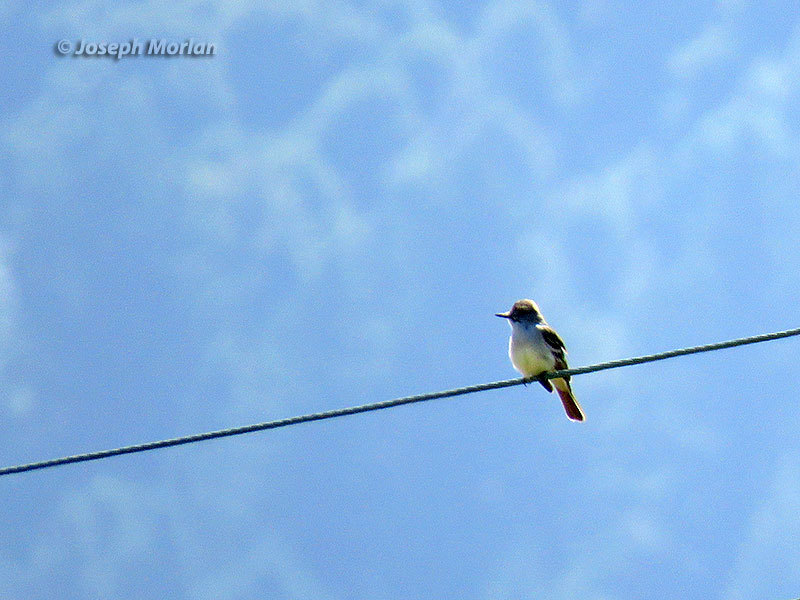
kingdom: Animalia
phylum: Chordata
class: Aves
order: Passeriformes
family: Tyrannidae
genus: Myiarchus
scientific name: Myiarchus cinerascens
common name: Ash-throated flycatcher
